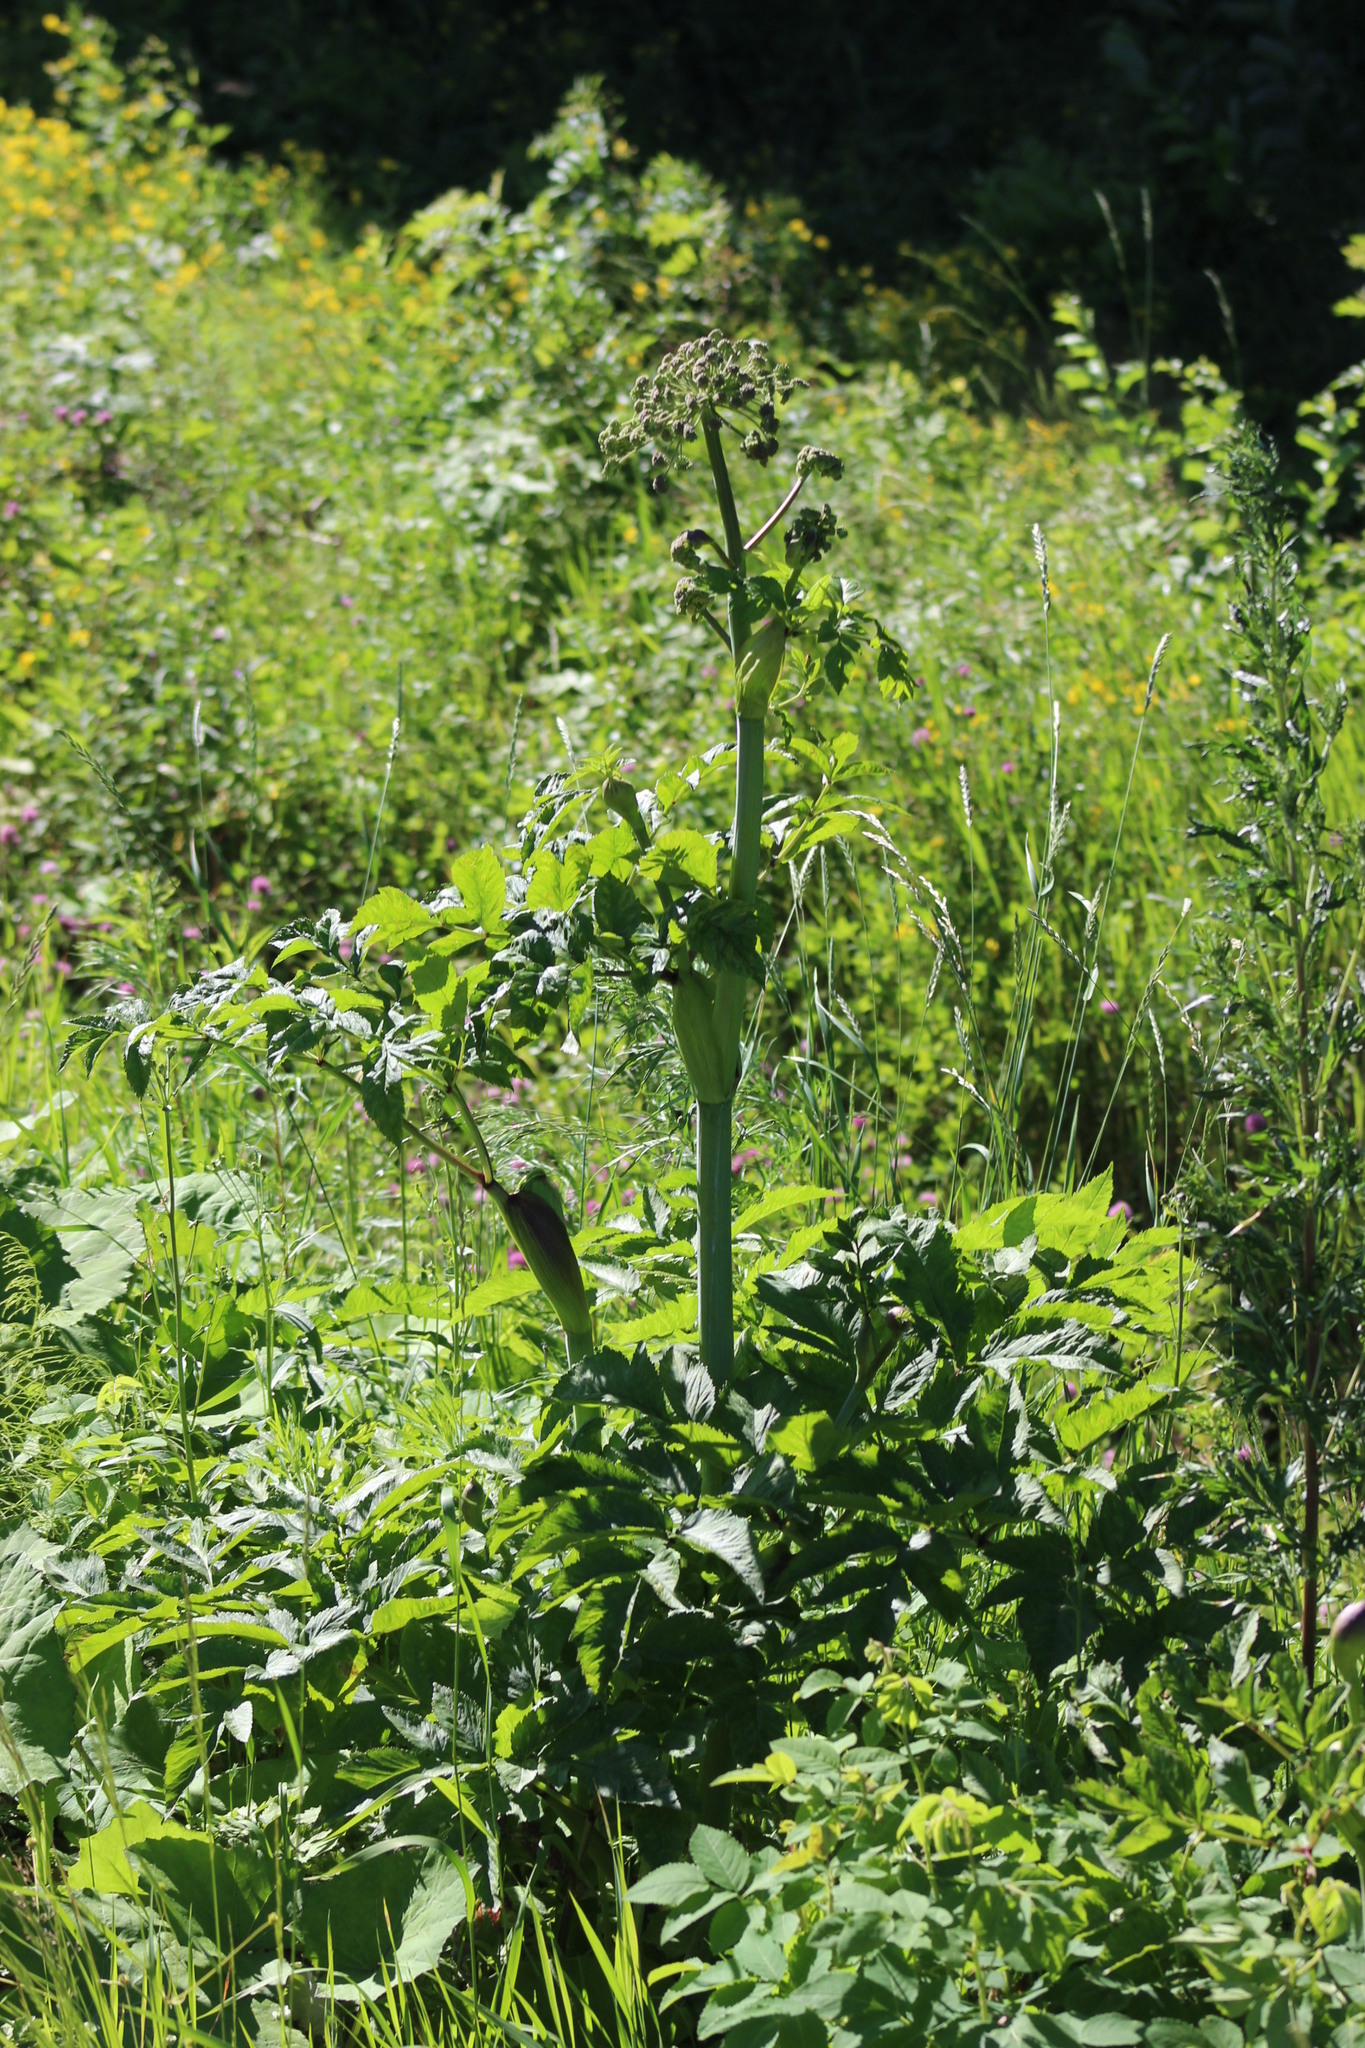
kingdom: Plantae
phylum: Tracheophyta
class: Magnoliopsida
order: Apiales
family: Apiaceae
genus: Angelica
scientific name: Angelica decurrens
